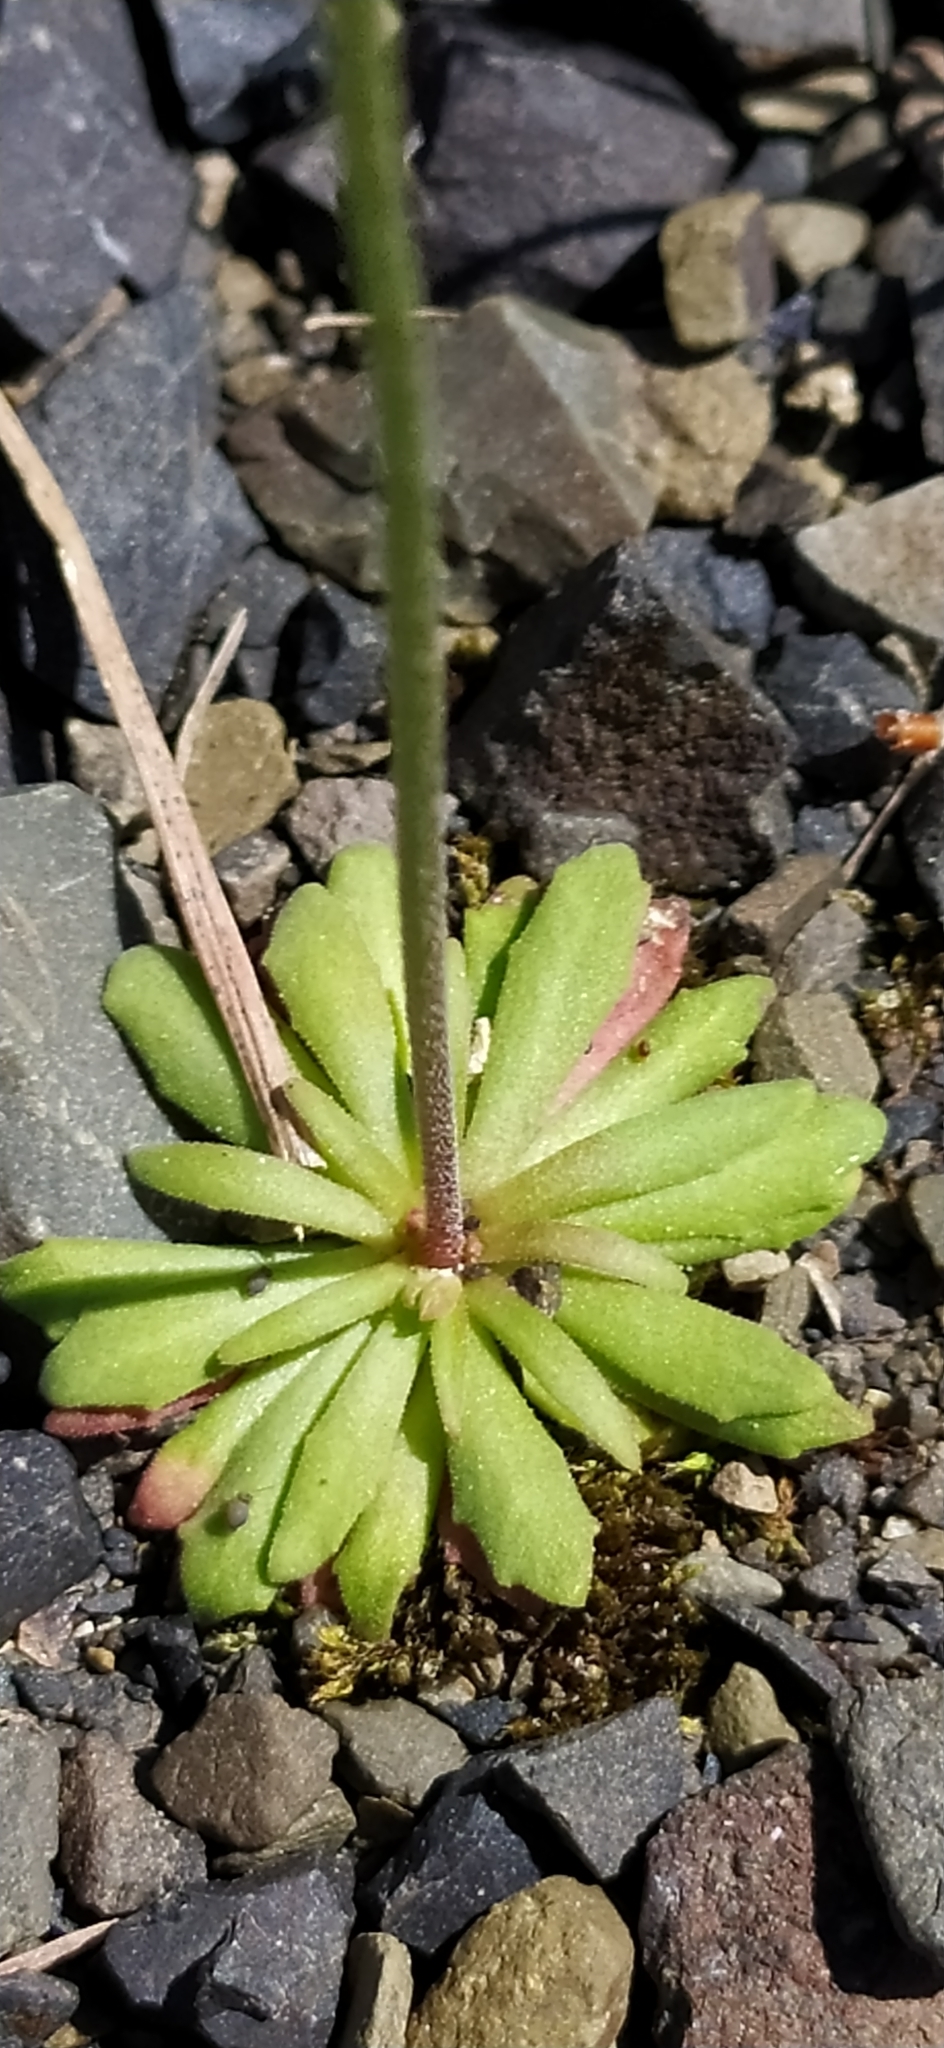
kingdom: Plantae
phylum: Tracheophyta
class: Magnoliopsida
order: Ericales
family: Primulaceae
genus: Androsace
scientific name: Androsace septentrionalis
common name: Hairy northern fairy-candelabra
